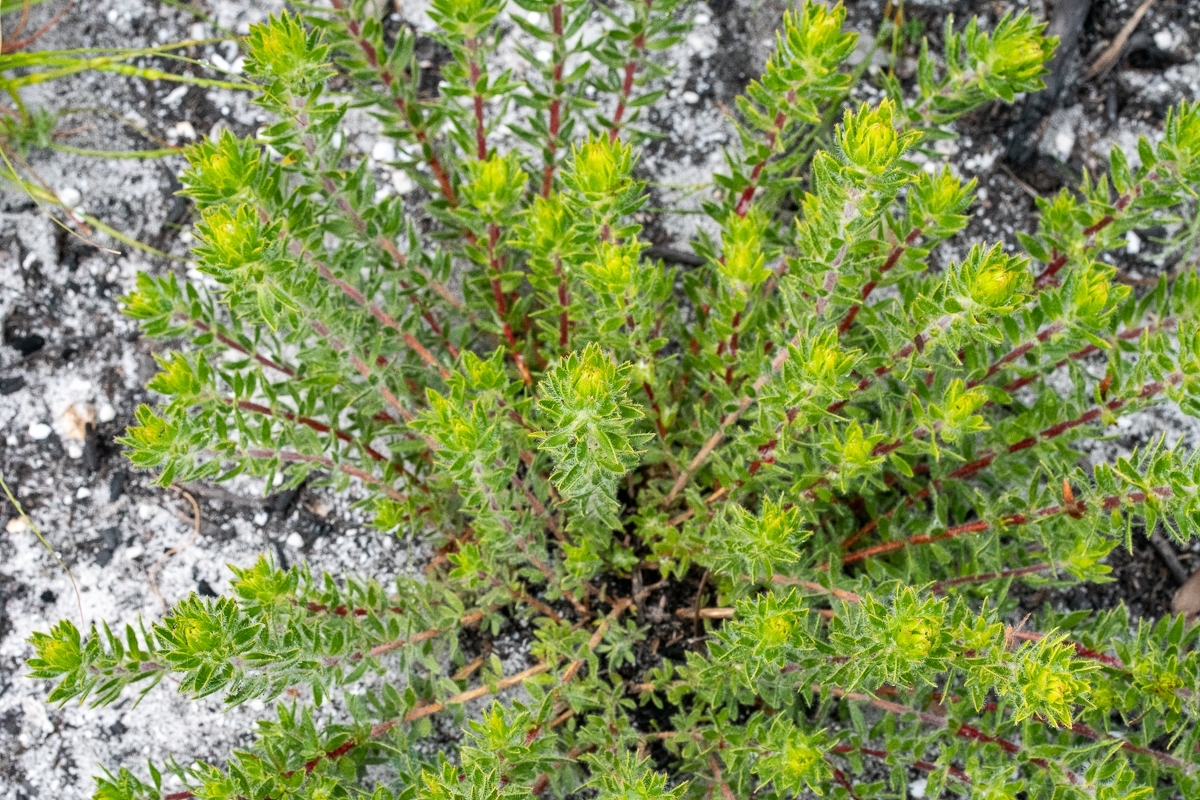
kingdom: Plantae
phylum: Tracheophyta
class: Magnoliopsida
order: Fabales
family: Fabaceae
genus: Aspalathus
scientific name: Aspalathus aspalathoides
